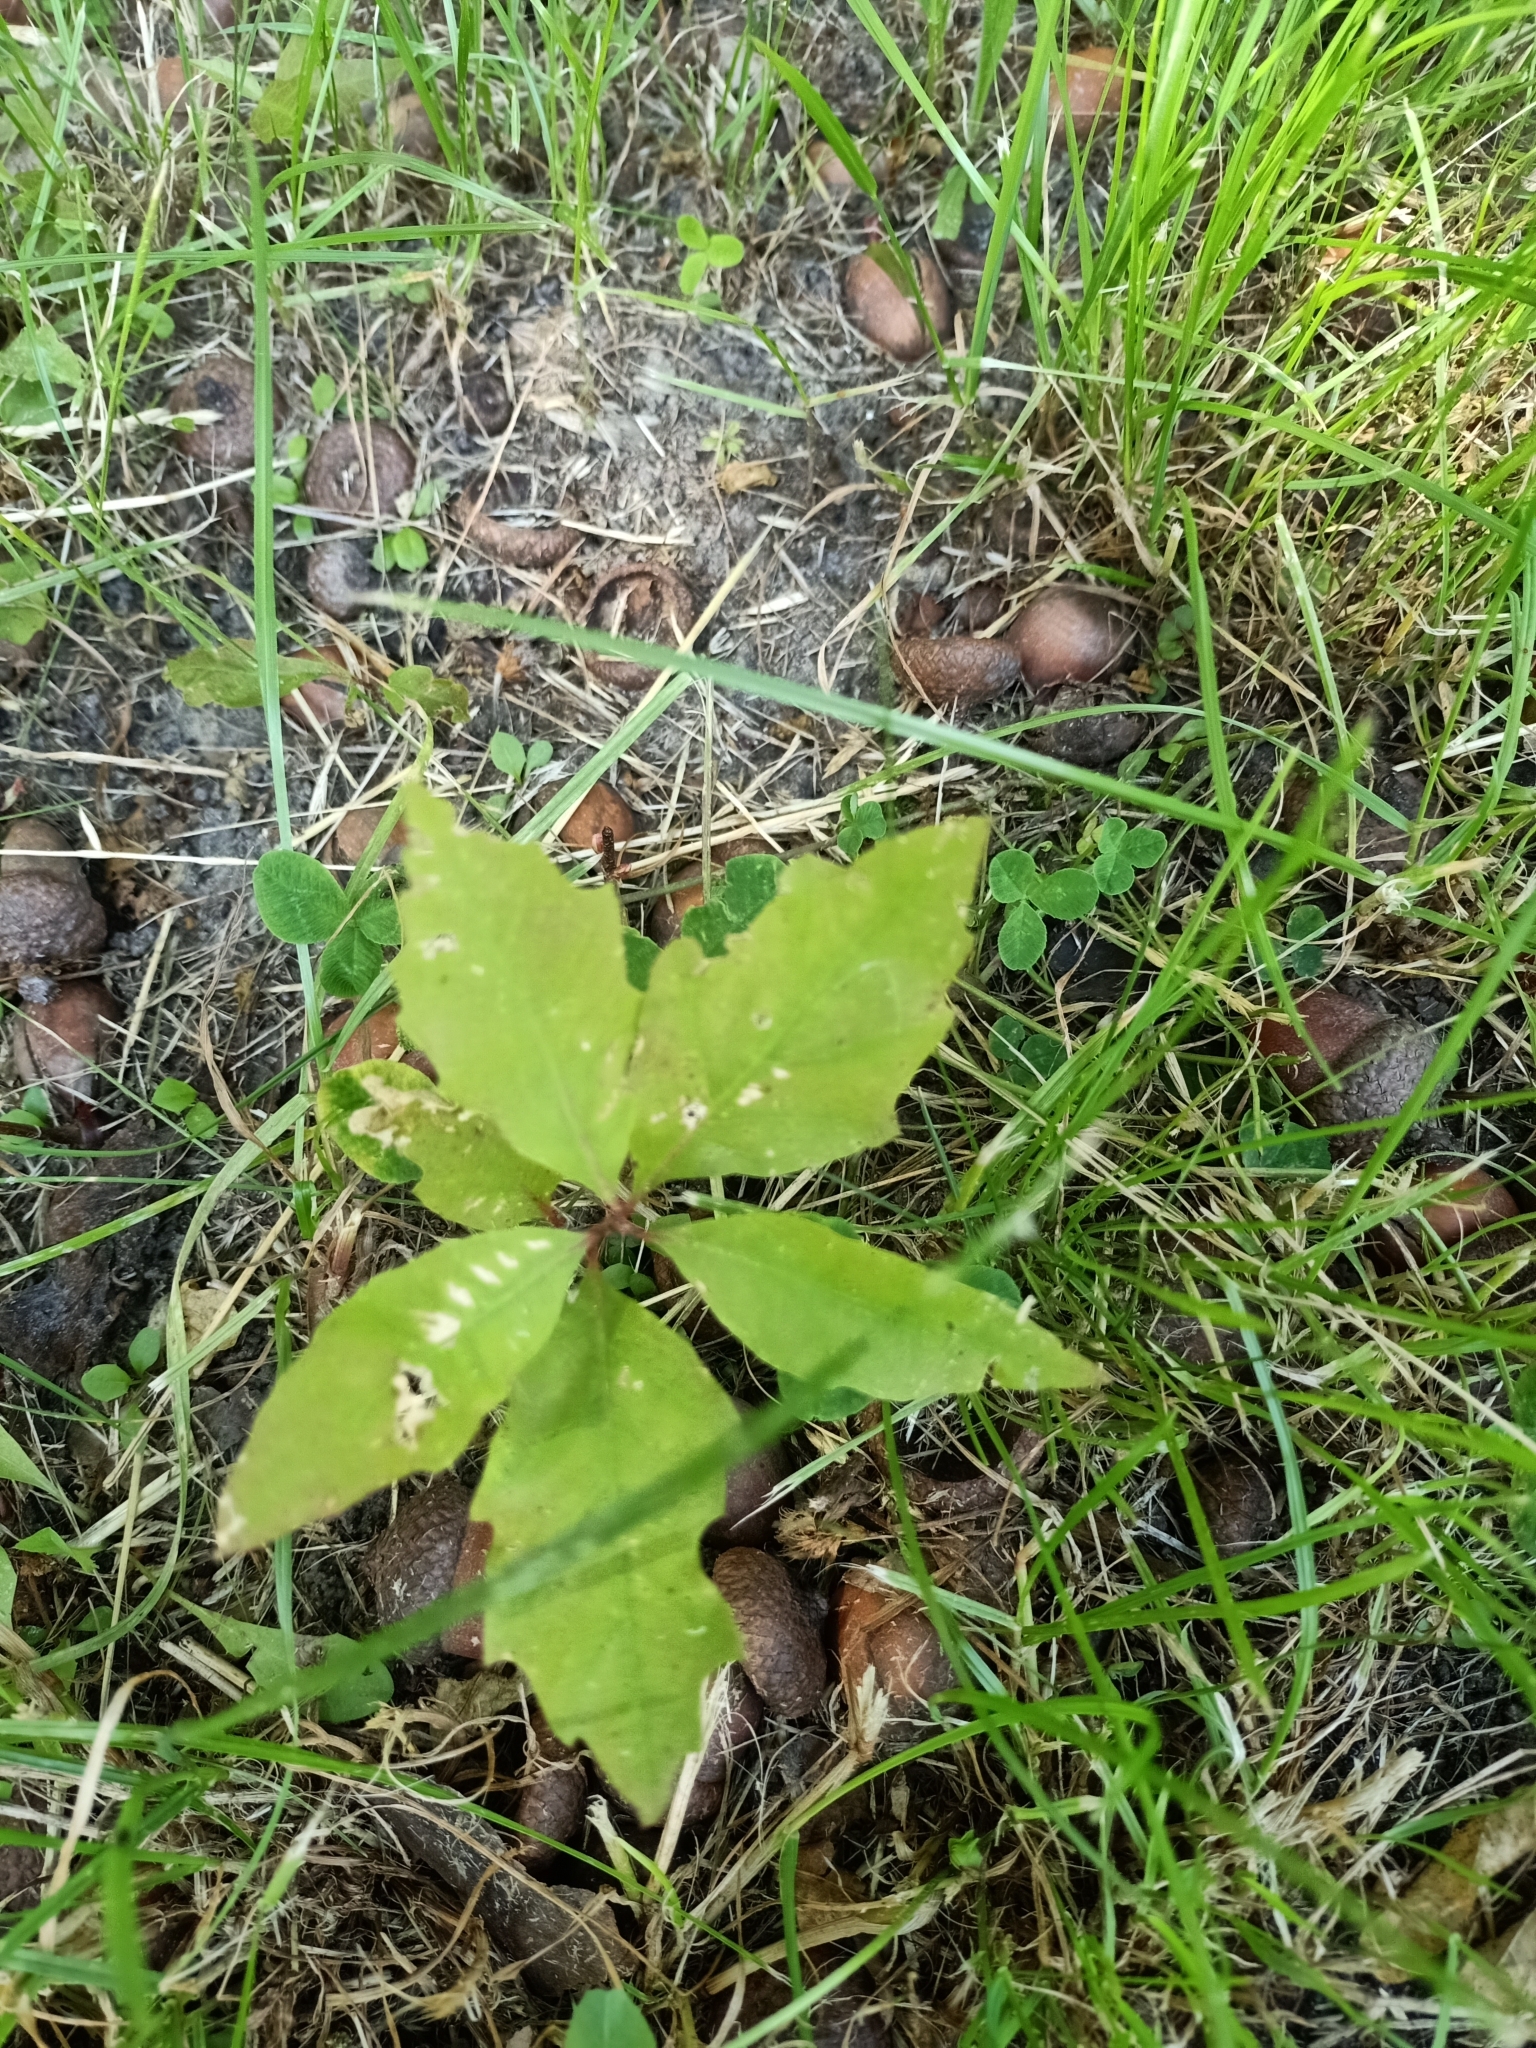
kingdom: Plantae
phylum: Tracheophyta
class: Magnoliopsida
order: Fagales
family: Fagaceae
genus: Quercus
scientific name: Quercus rubra
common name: Red oak
